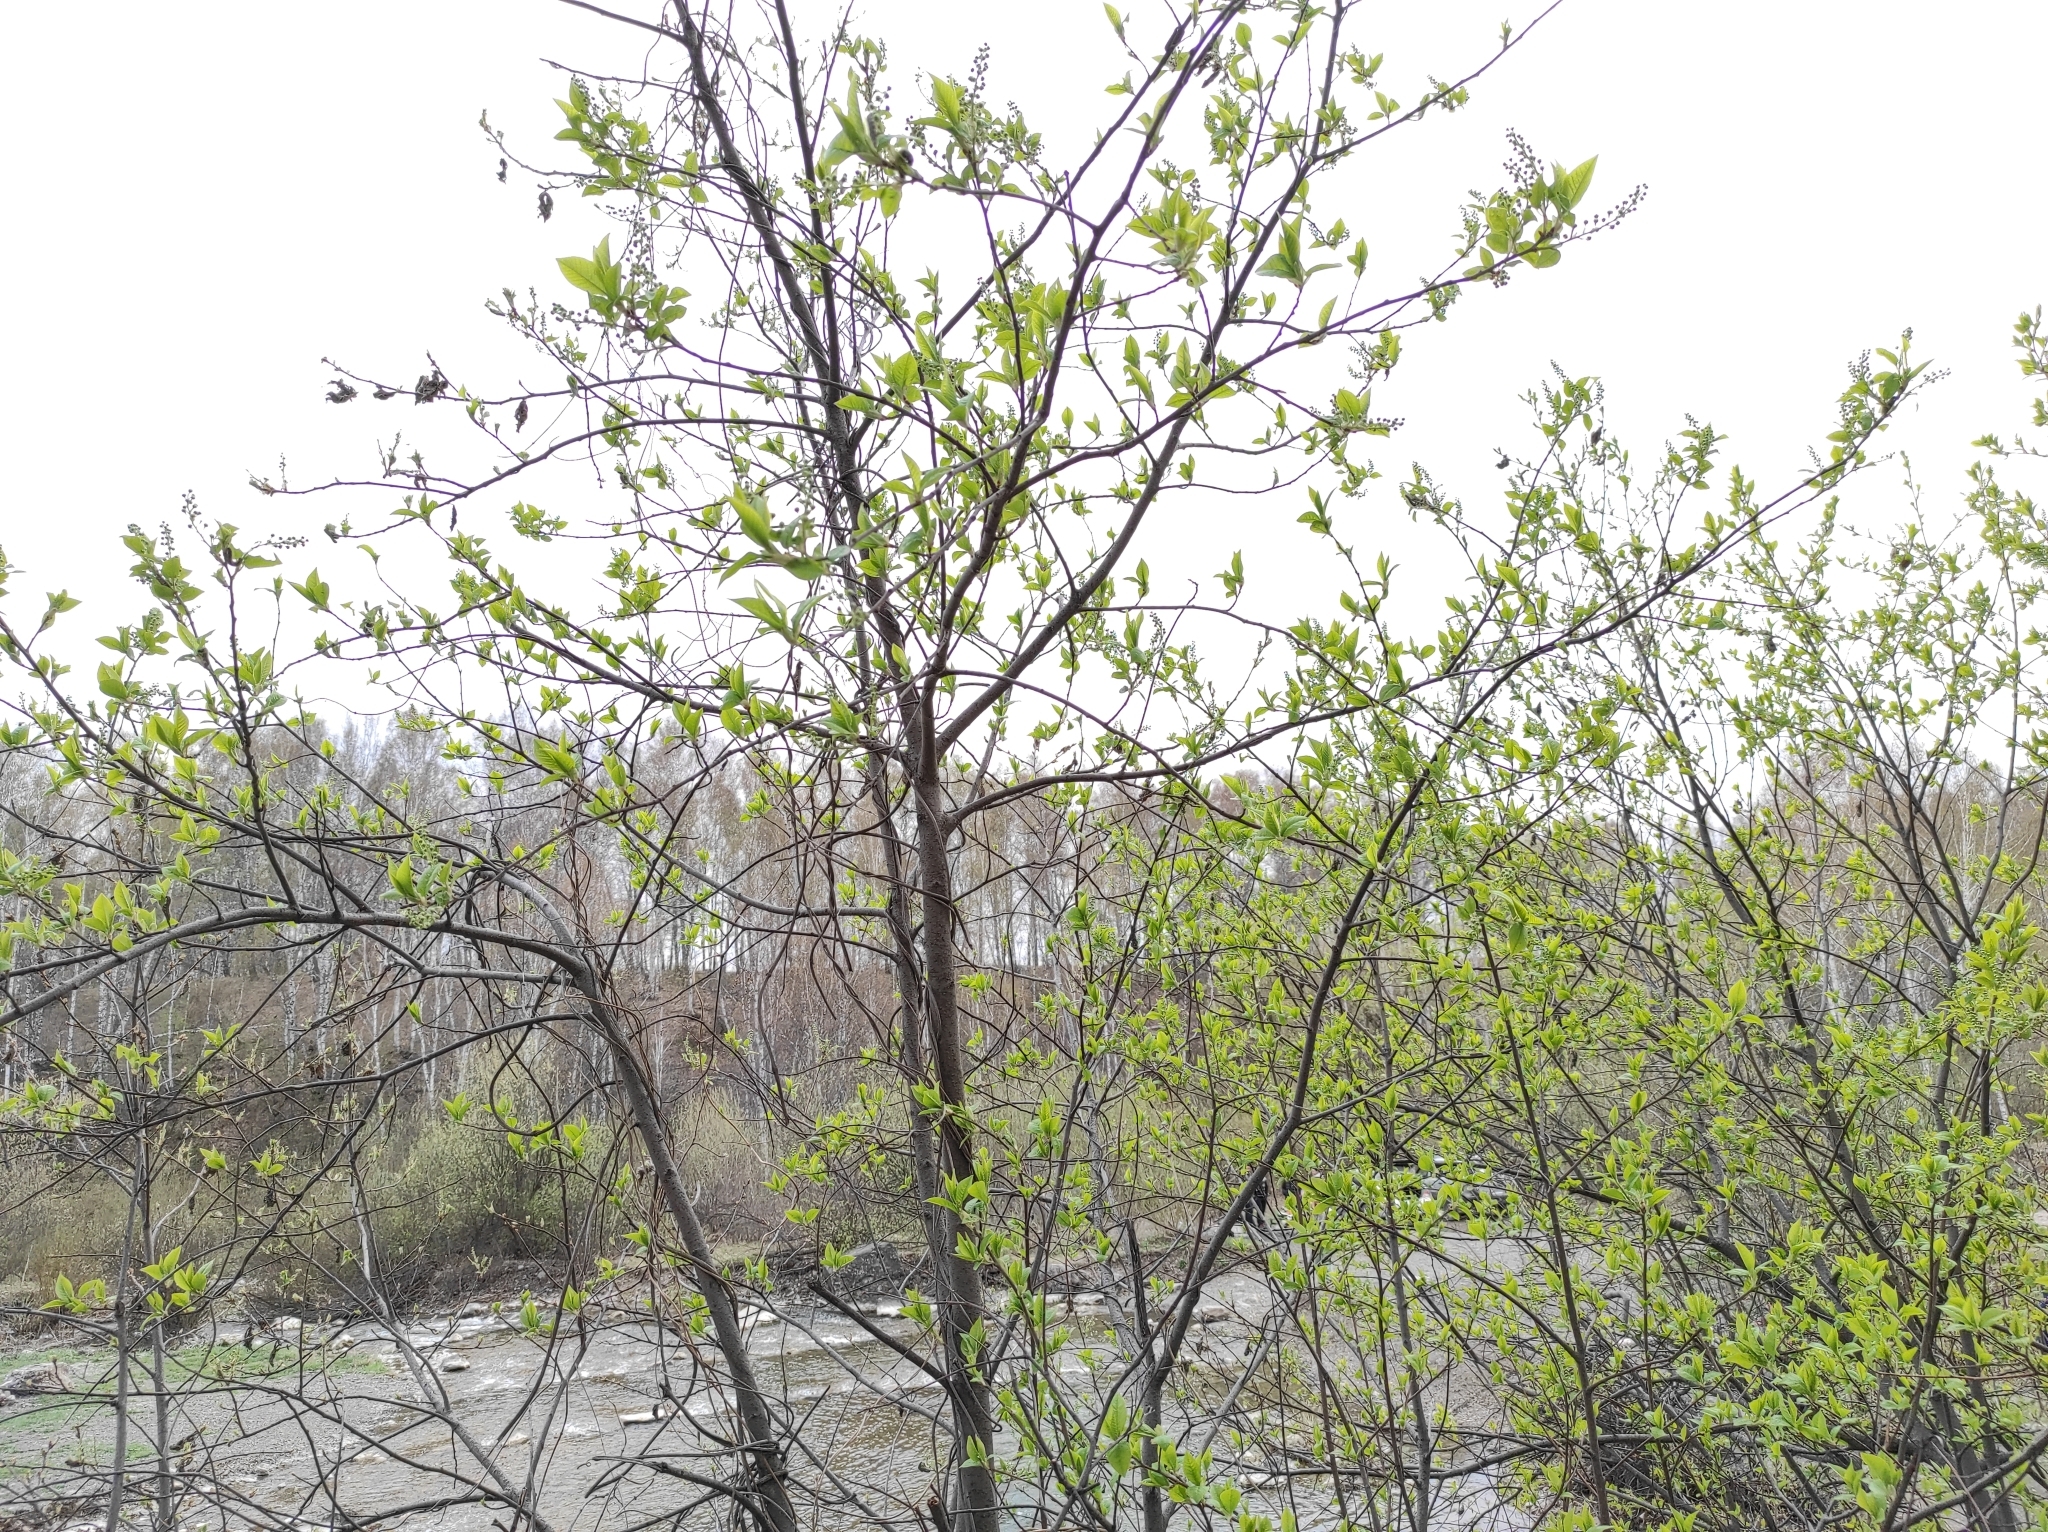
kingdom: Plantae
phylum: Tracheophyta
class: Magnoliopsida
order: Rosales
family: Rosaceae
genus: Prunus
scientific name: Prunus padus
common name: Bird cherry
